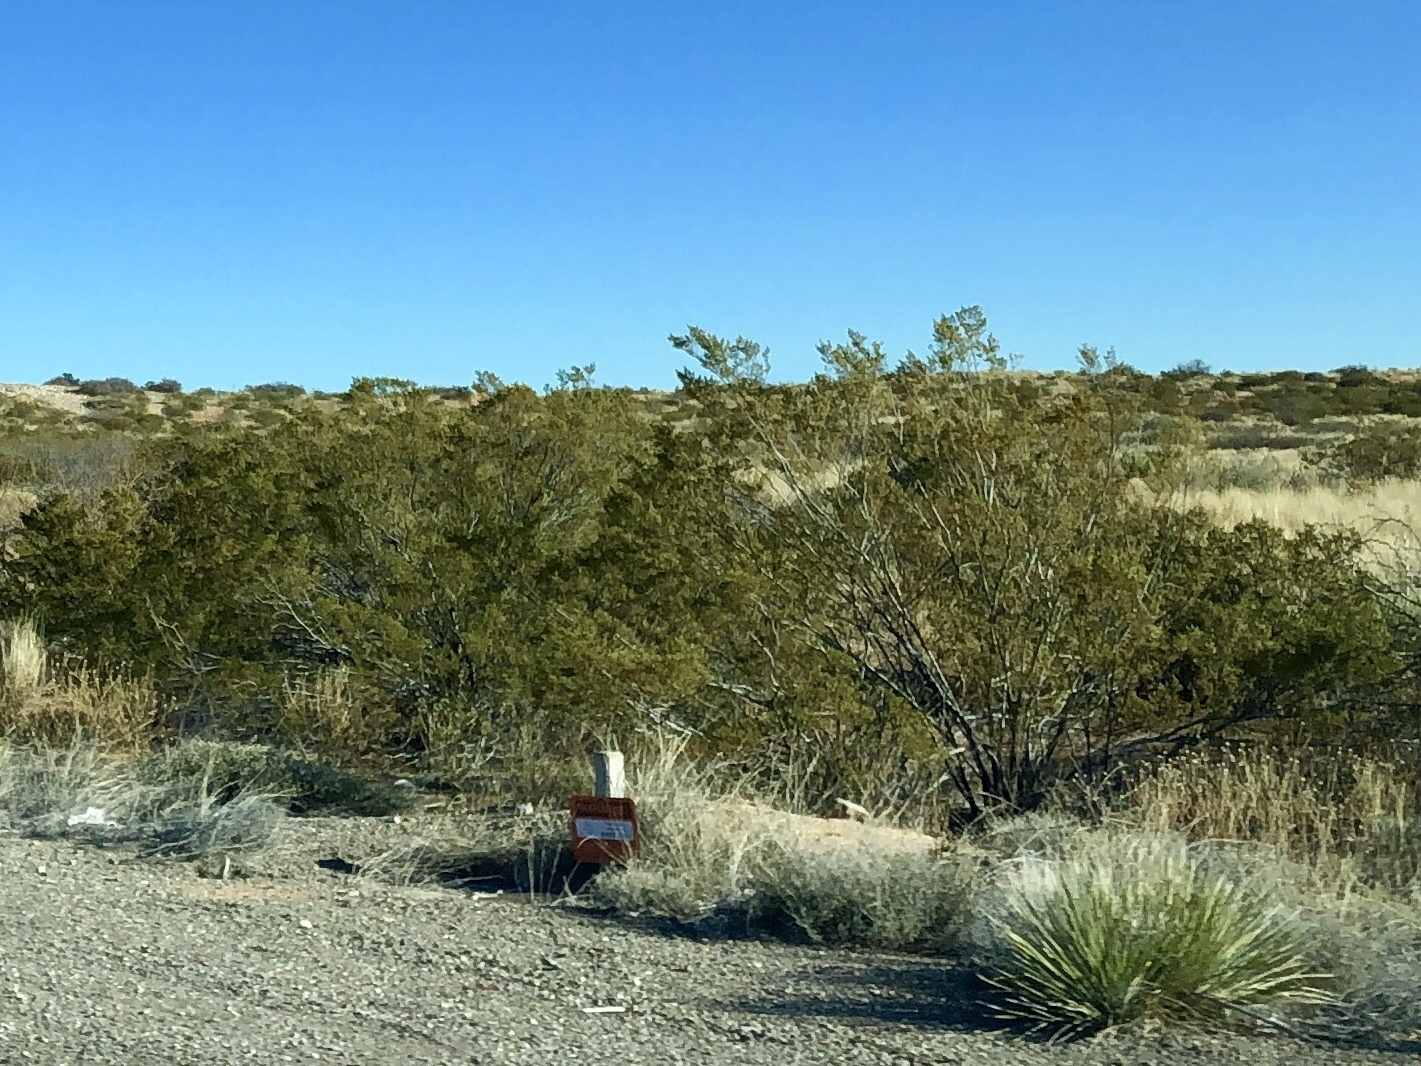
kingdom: Plantae
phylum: Tracheophyta
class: Magnoliopsida
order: Zygophyllales
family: Zygophyllaceae
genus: Larrea
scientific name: Larrea tridentata
